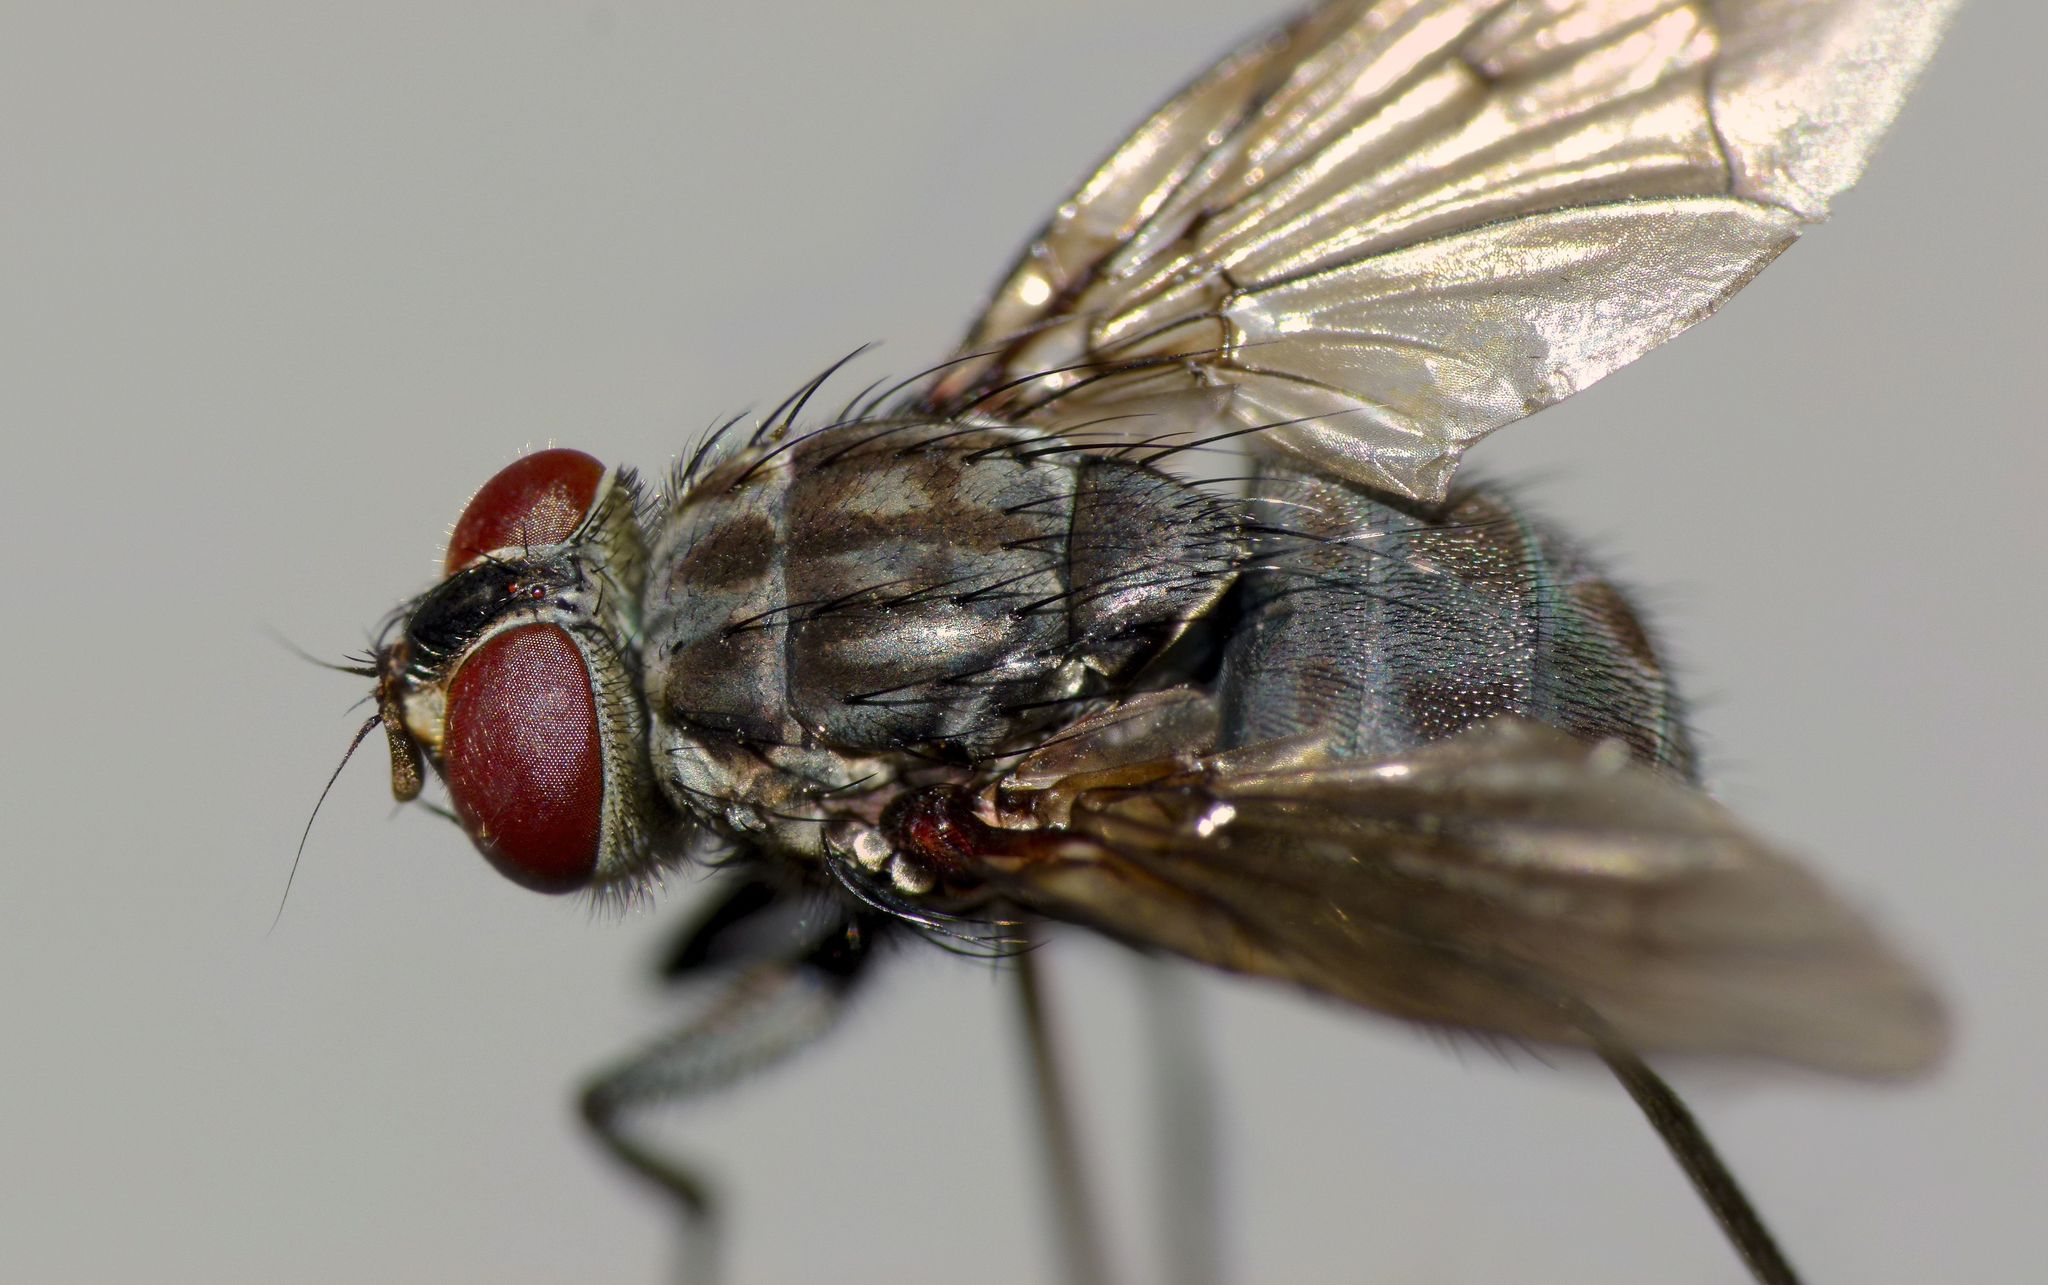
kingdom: Animalia
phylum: Arthropoda
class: Insecta
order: Diptera
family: Muscidae
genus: Spilogona
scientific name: Spilogona tenuicornis
